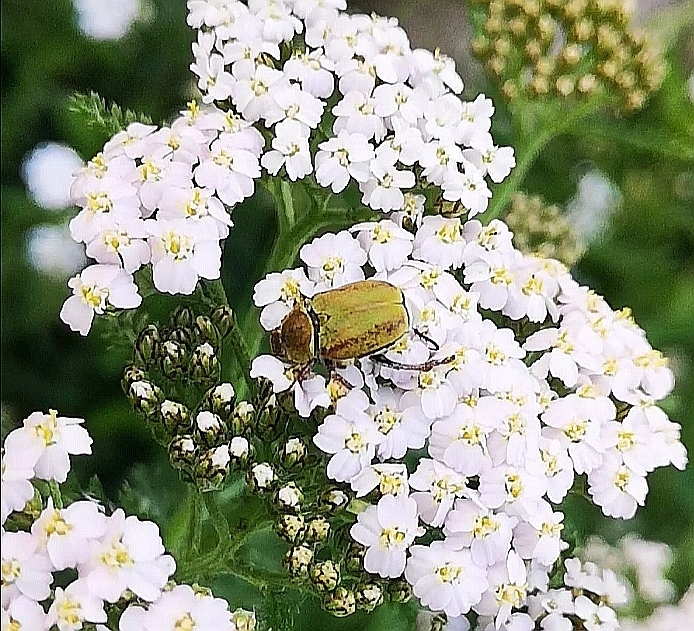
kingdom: Animalia
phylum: Arthropoda
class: Insecta
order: Coleoptera
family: Scarabaeidae
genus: Hoplia
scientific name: Hoplia argentea
